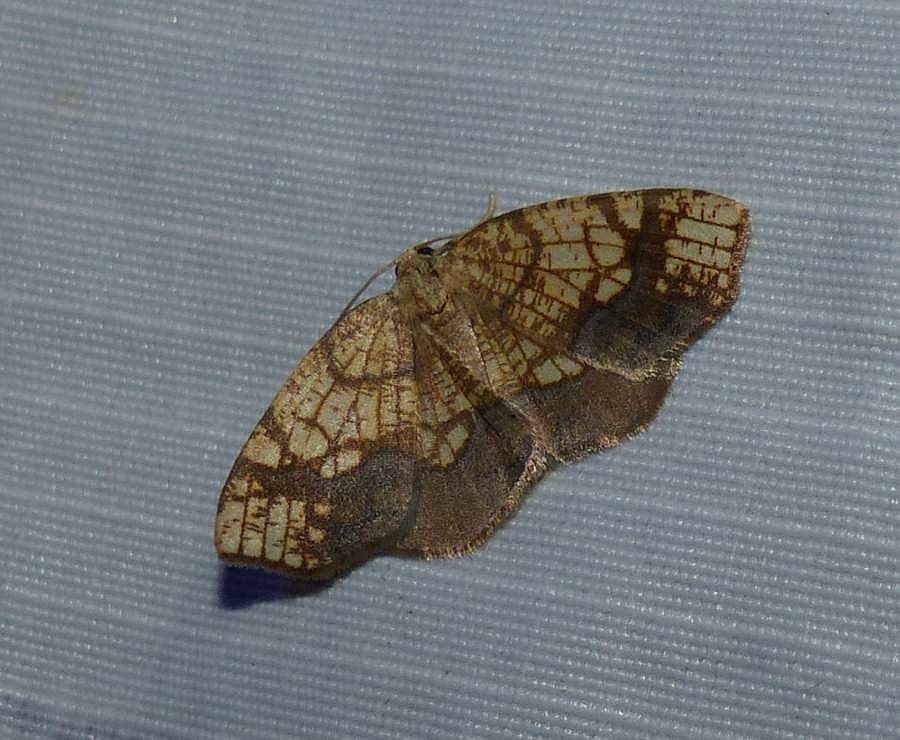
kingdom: Animalia
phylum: Arthropoda
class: Insecta
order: Lepidoptera
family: Geometridae
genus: Nematocampa
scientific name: Nematocampa resistaria
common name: Horned spanworm moth
